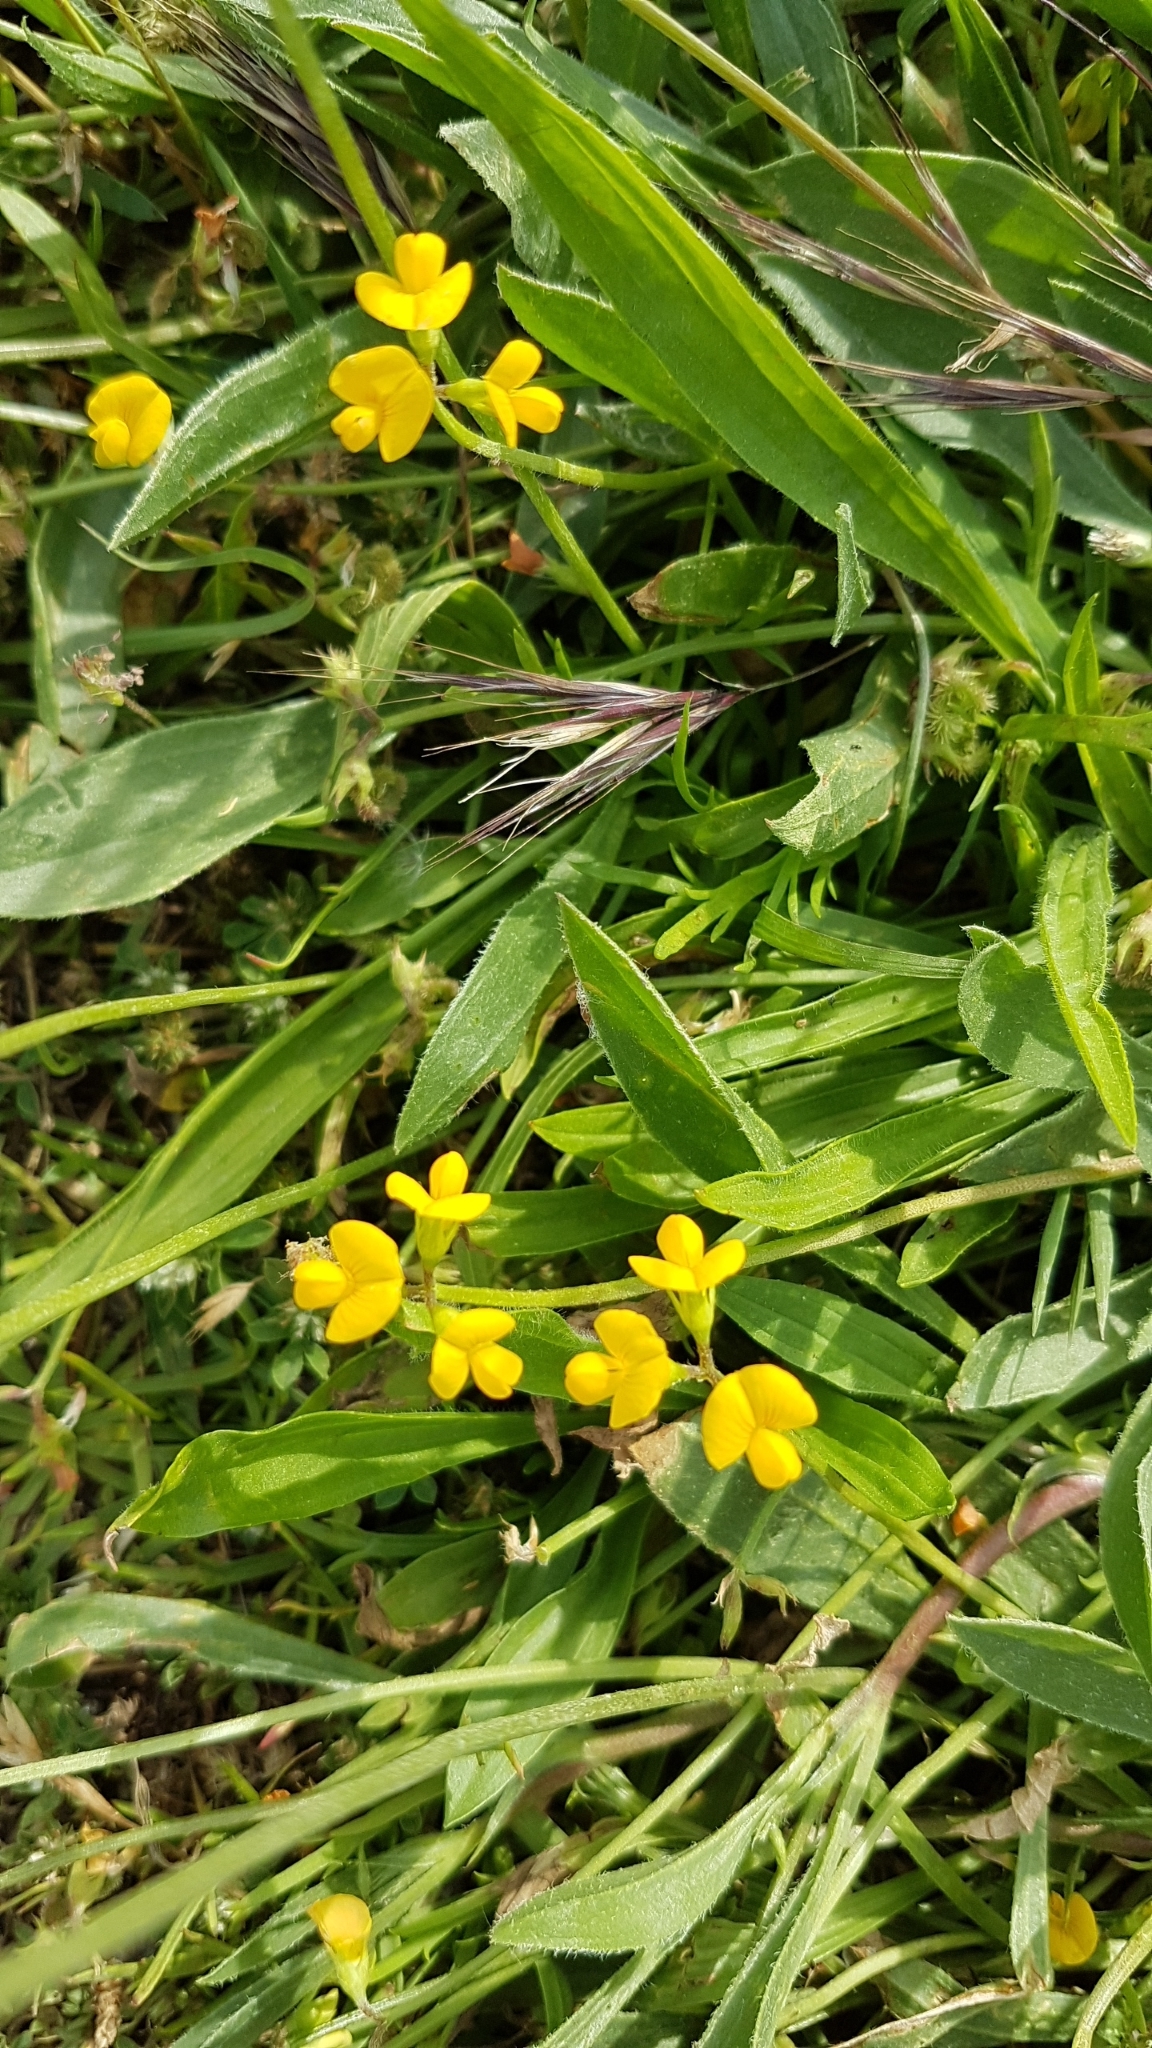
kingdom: Plantae
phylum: Tracheophyta
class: Magnoliopsida
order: Fabales
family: Fabaceae
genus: Scorpiurus
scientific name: Scorpiurus muricatus
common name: Caterpillar-plant
